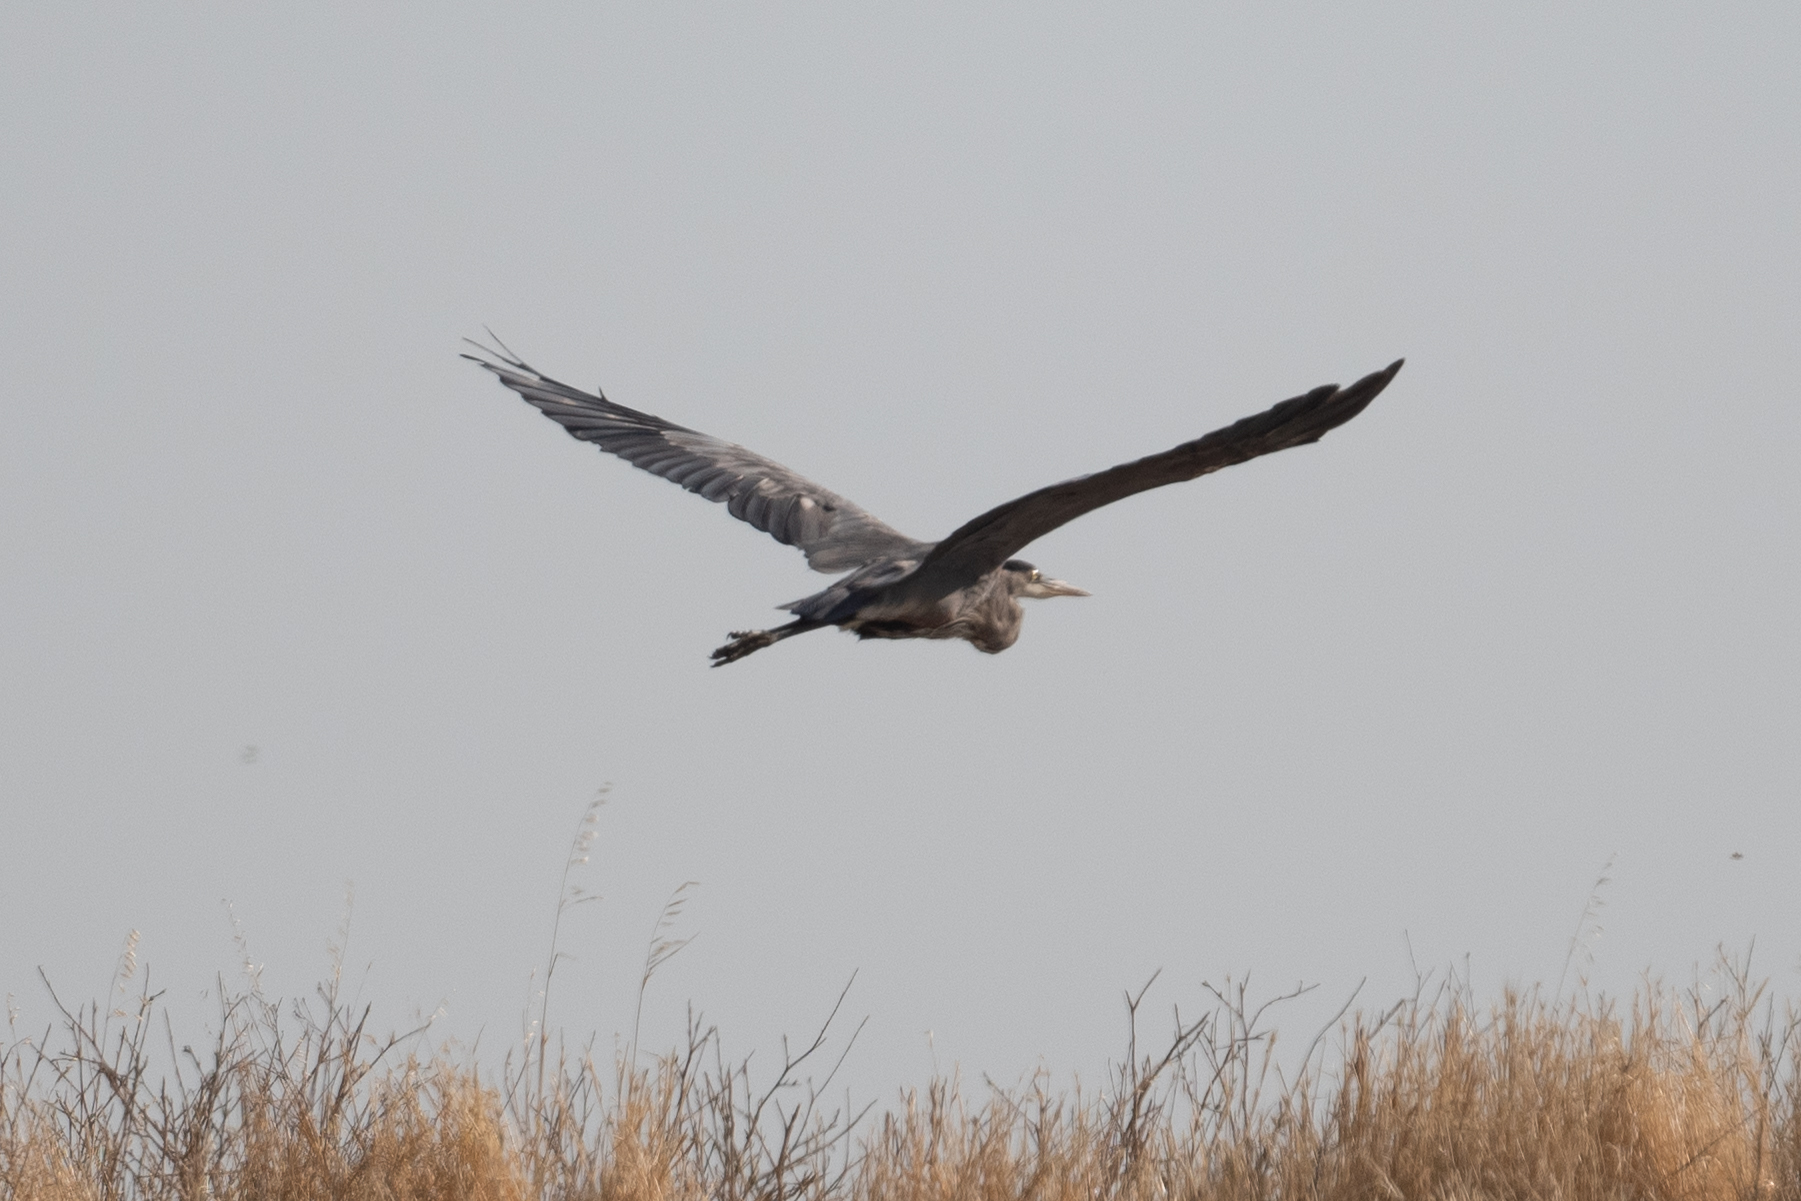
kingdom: Animalia
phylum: Chordata
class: Aves
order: Pelecaniformes
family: Ardeidae
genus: Ardea
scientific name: Ardea herodias
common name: Great blue heron
